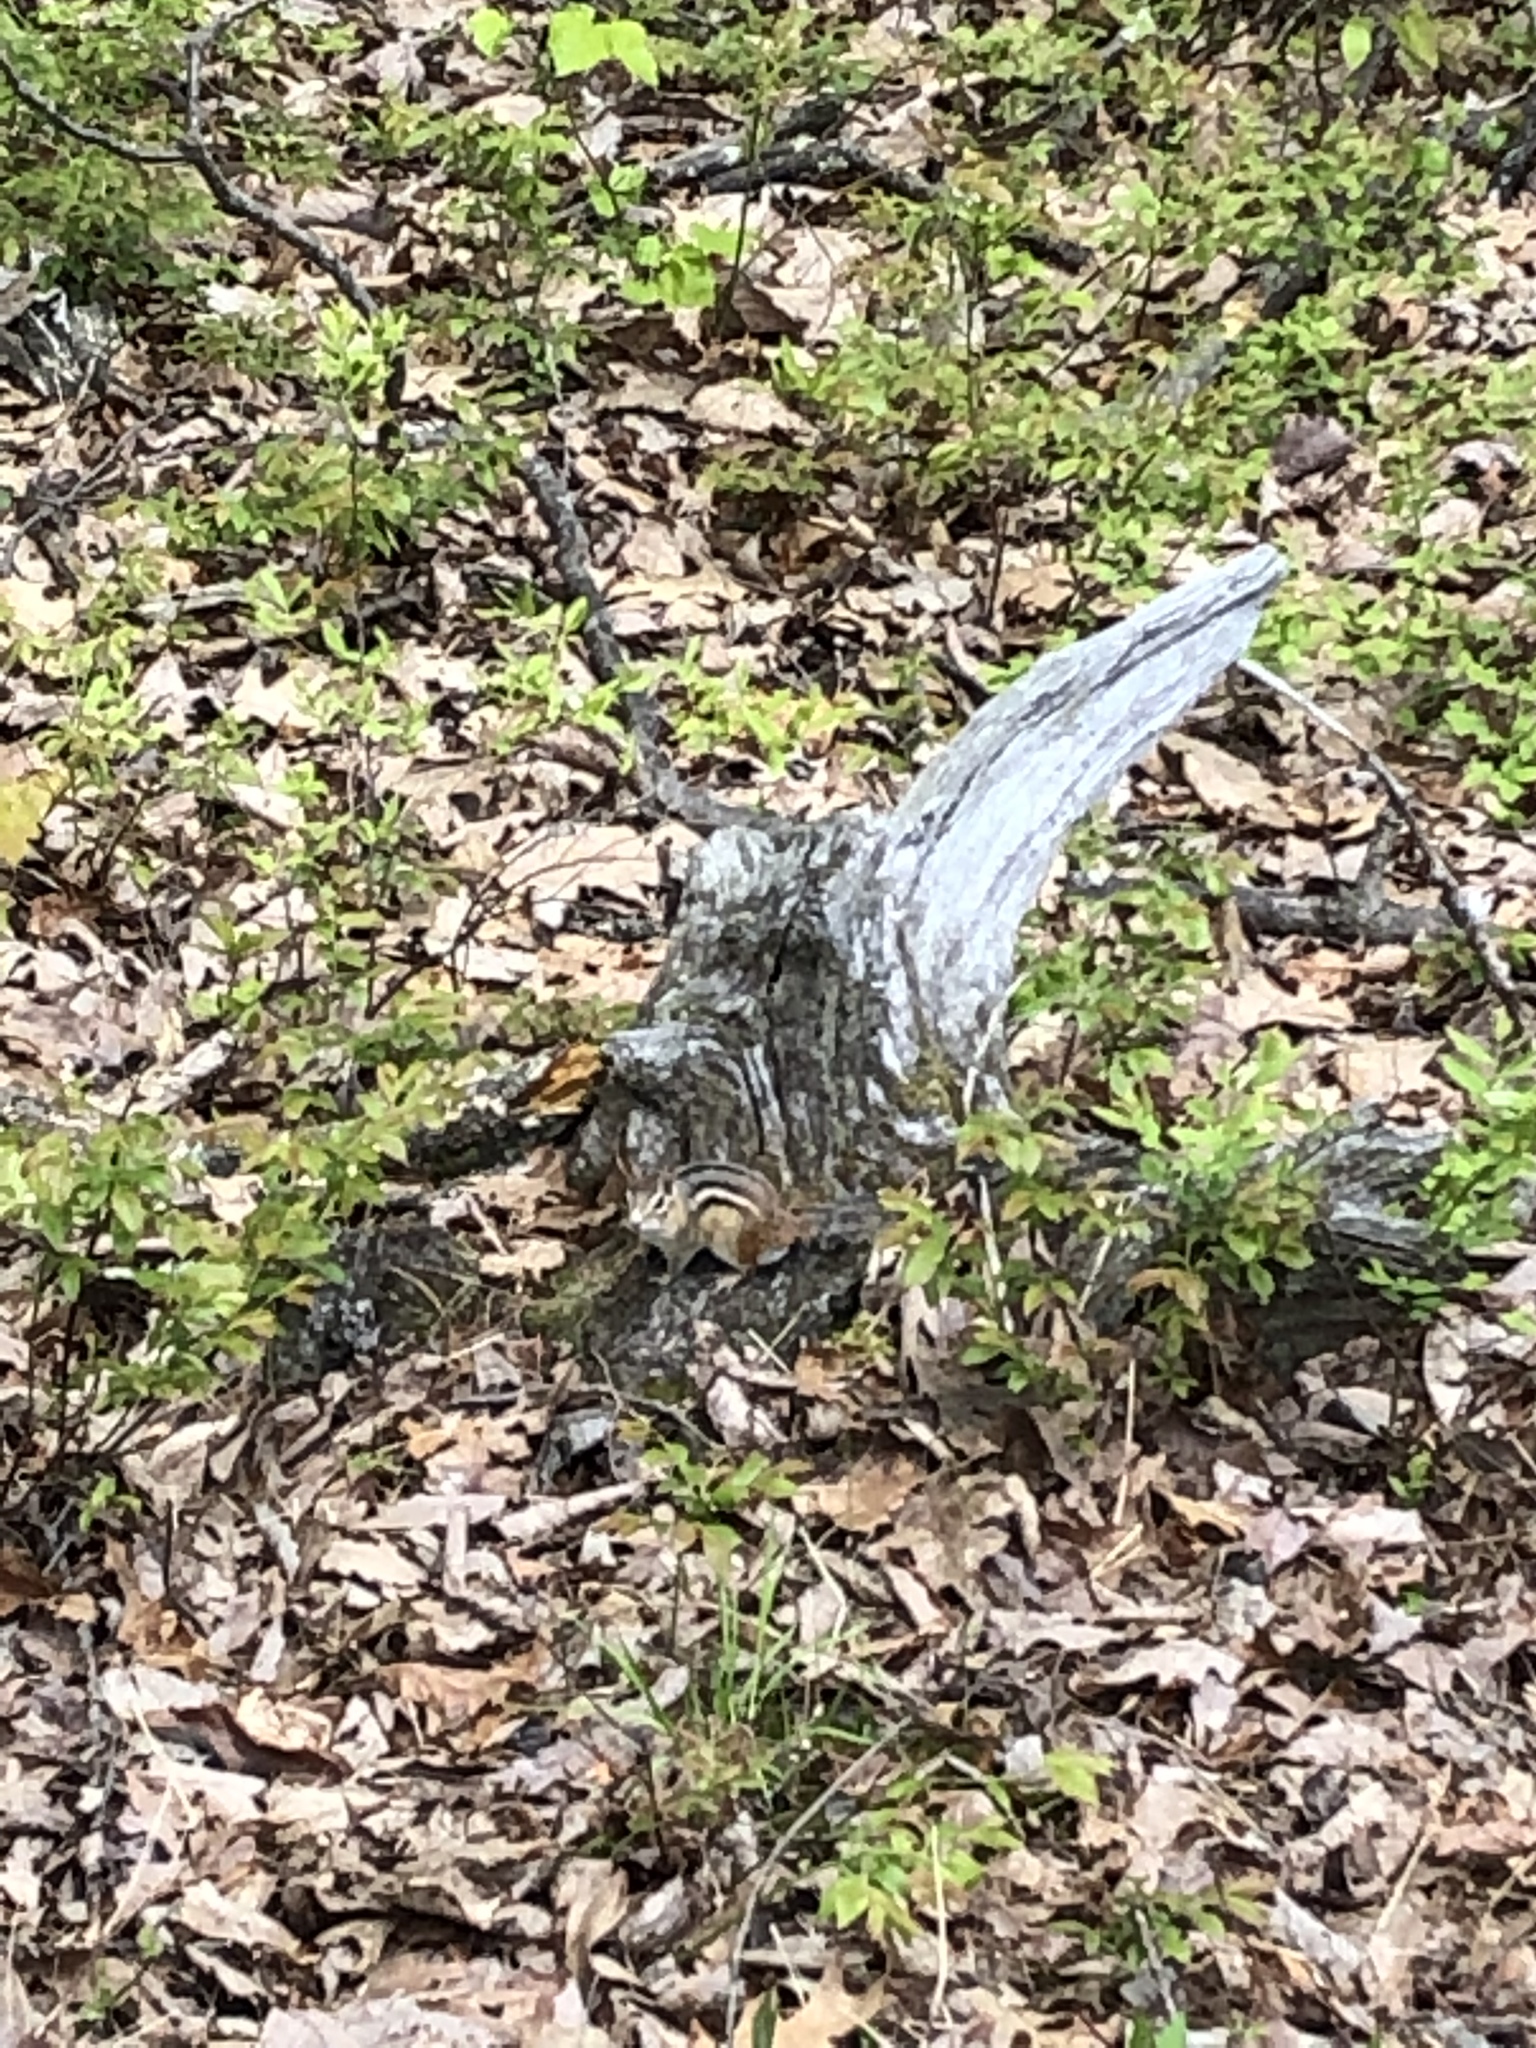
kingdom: Animalia
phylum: Chordata
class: Mammalia
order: Rodentia
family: Sciuridae
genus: Tamias
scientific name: Tamias striatus
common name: Eastern chipmunk
